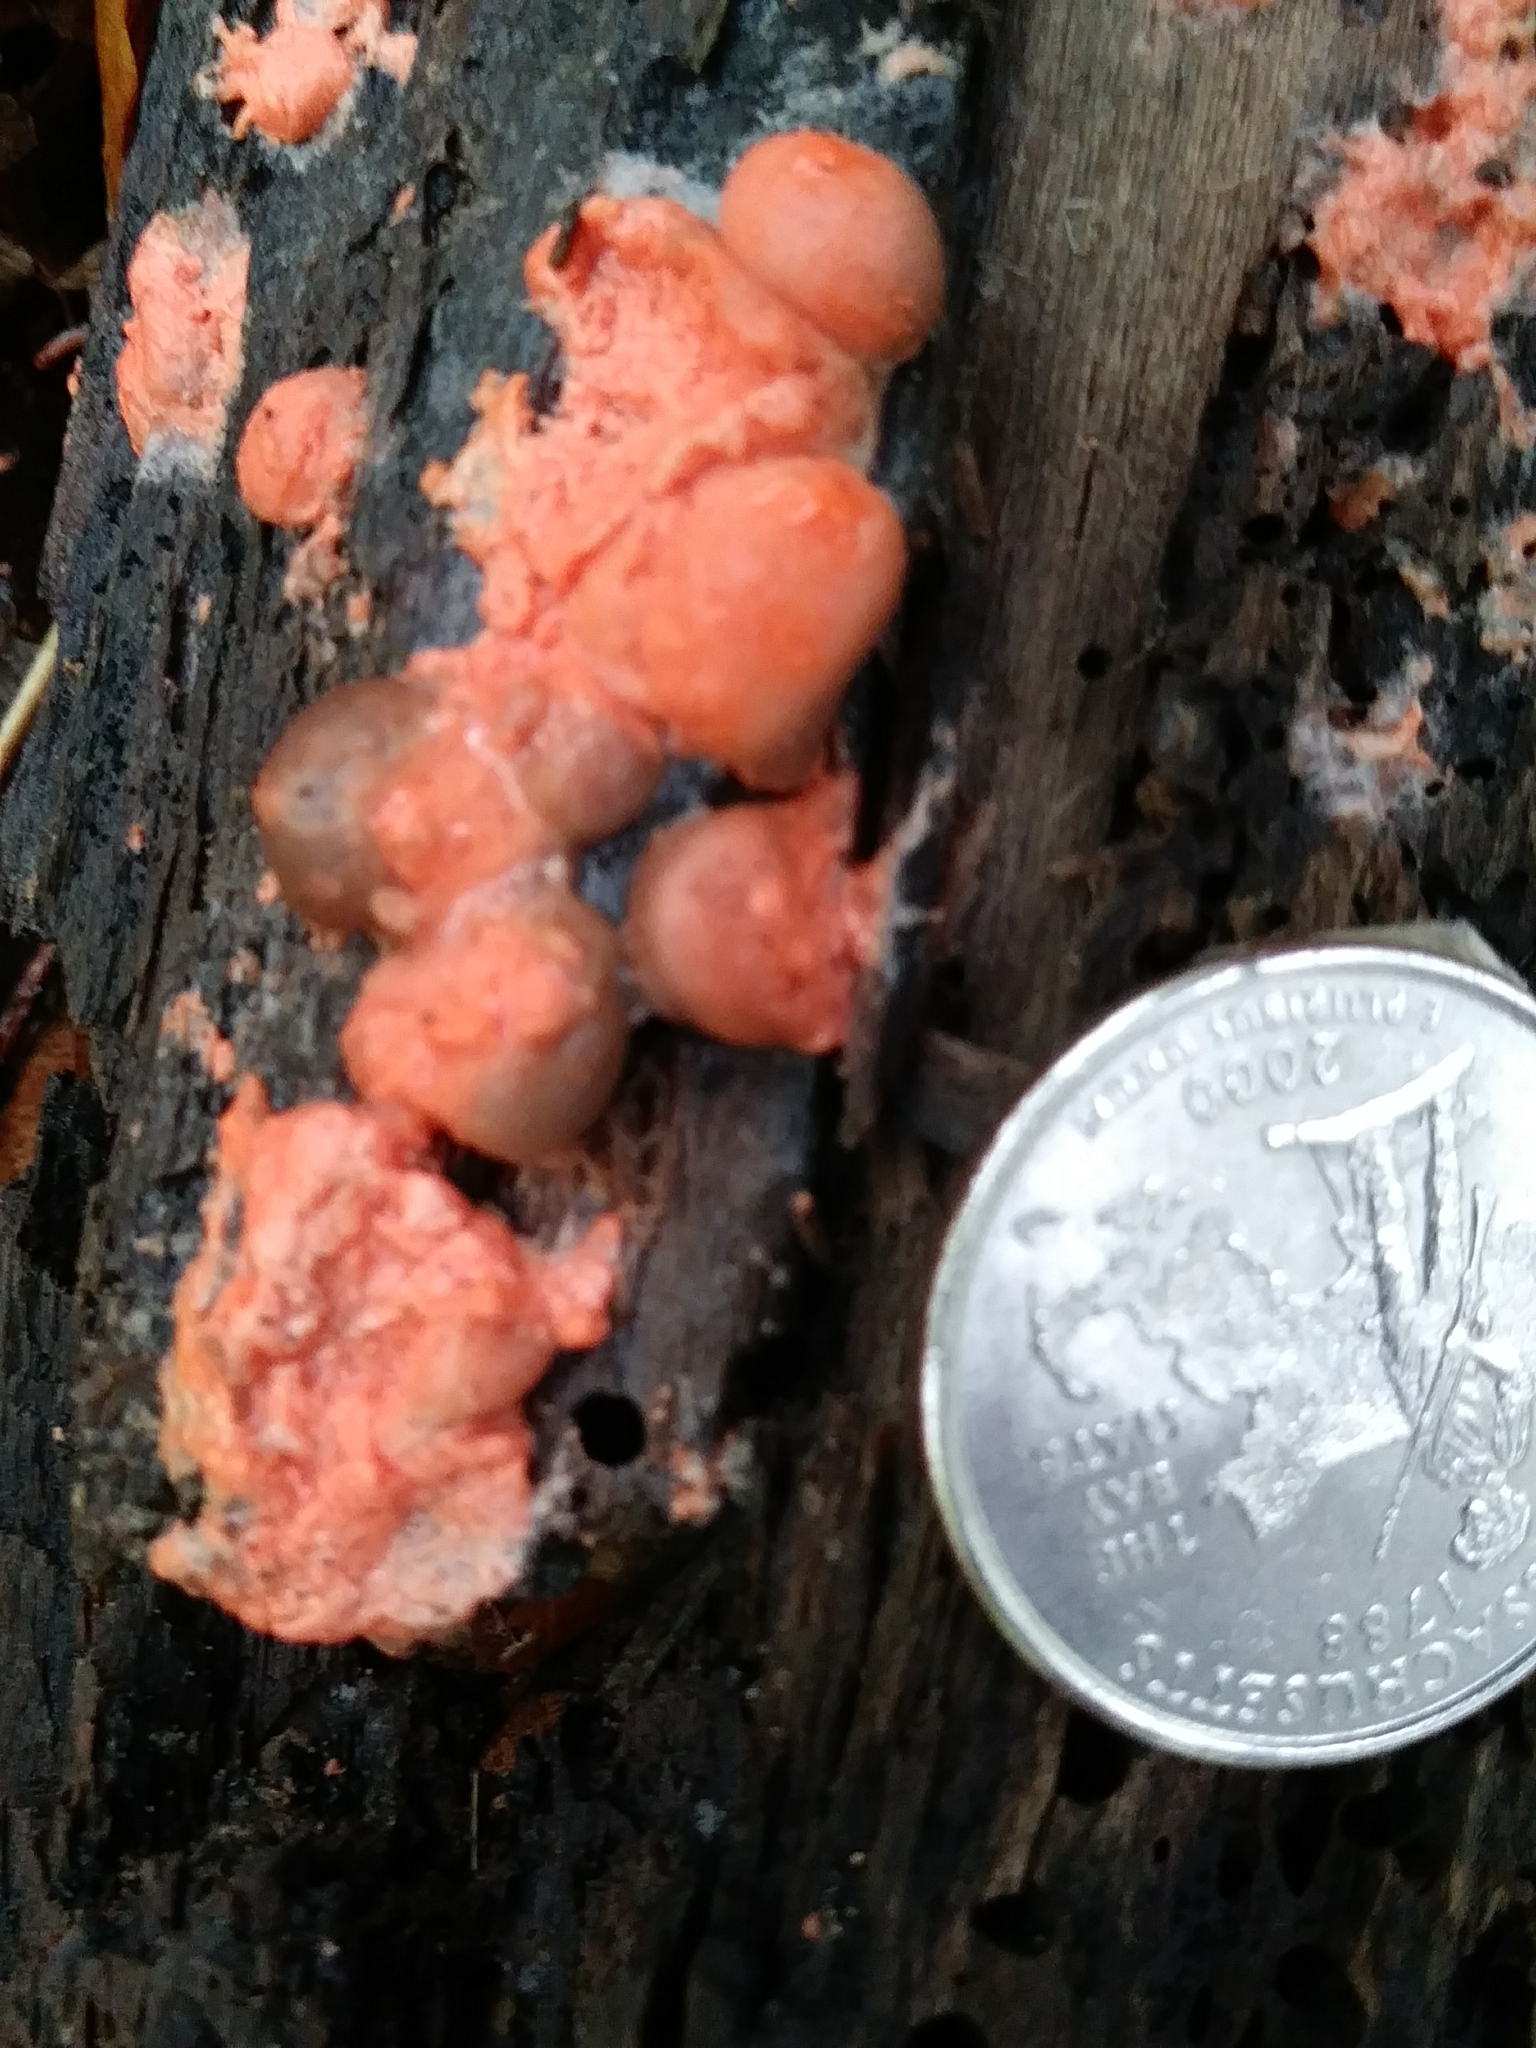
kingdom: Protozoa
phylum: Mycetozoa
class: Myxomycetes
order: Cribrariales
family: Tubiferaceae
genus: Lycogala
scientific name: Lycogala epidendrum
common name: Wolf's milk
